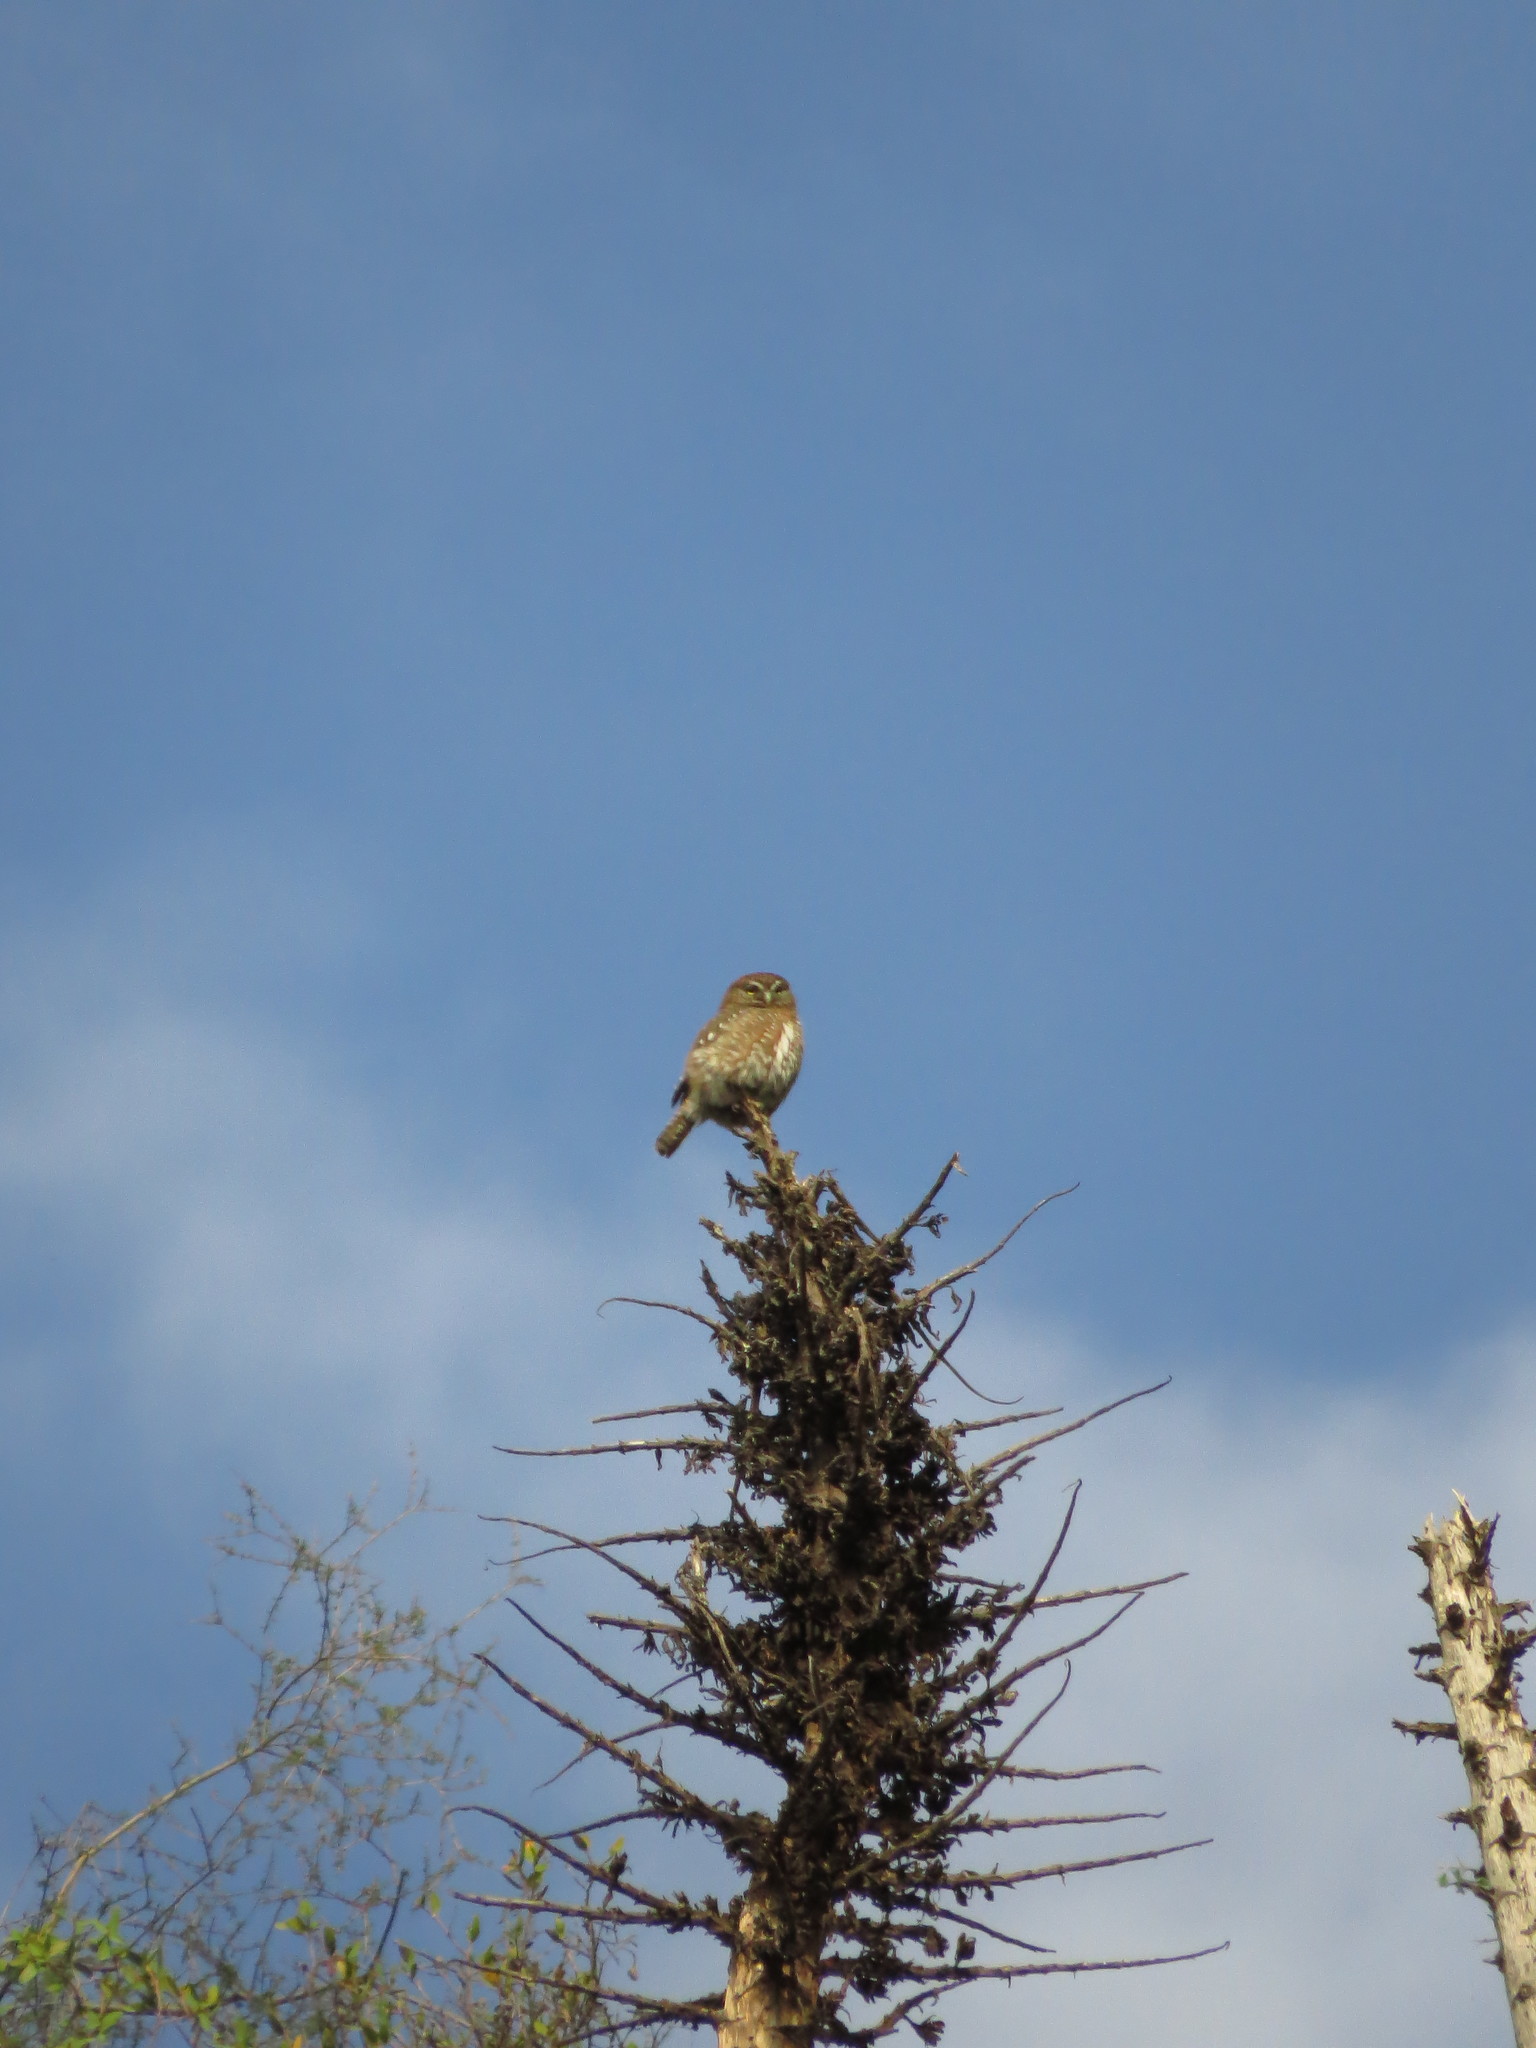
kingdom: Animalia
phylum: Chordata
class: Aves
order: Strigiformes
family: Strigidae
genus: Glaucidium
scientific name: Glaucidium nana
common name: Austral pygmy-owl
